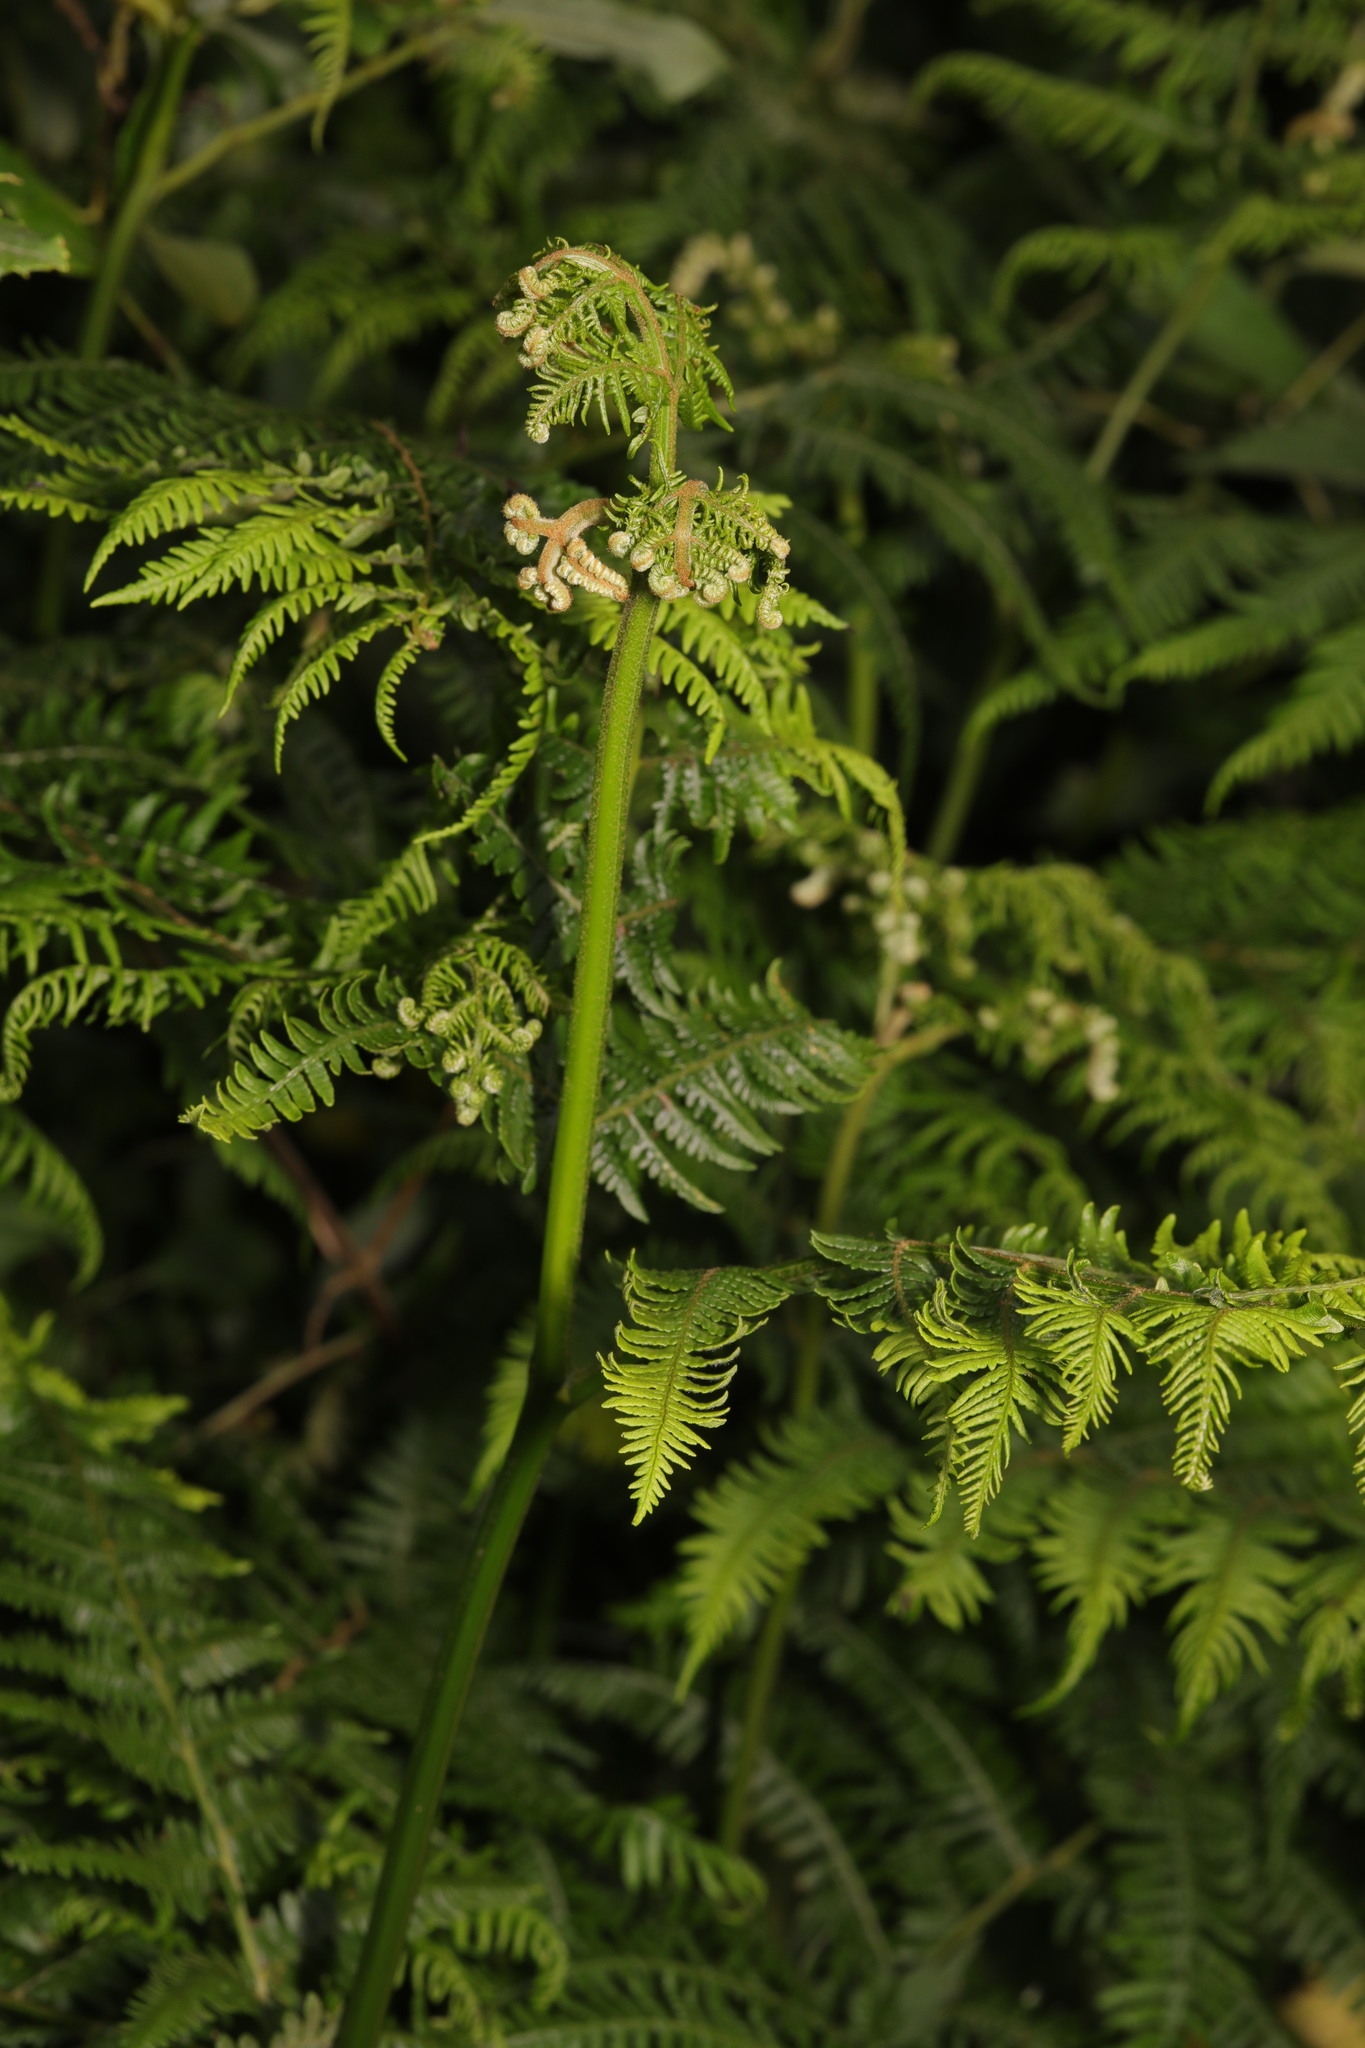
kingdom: Plantae
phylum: Tracheophyta
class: Polypodiopsida
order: Polypodiales
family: Dennstaedtiaceae
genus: Pteridium
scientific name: Pteridium aquilinum
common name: Bracken
